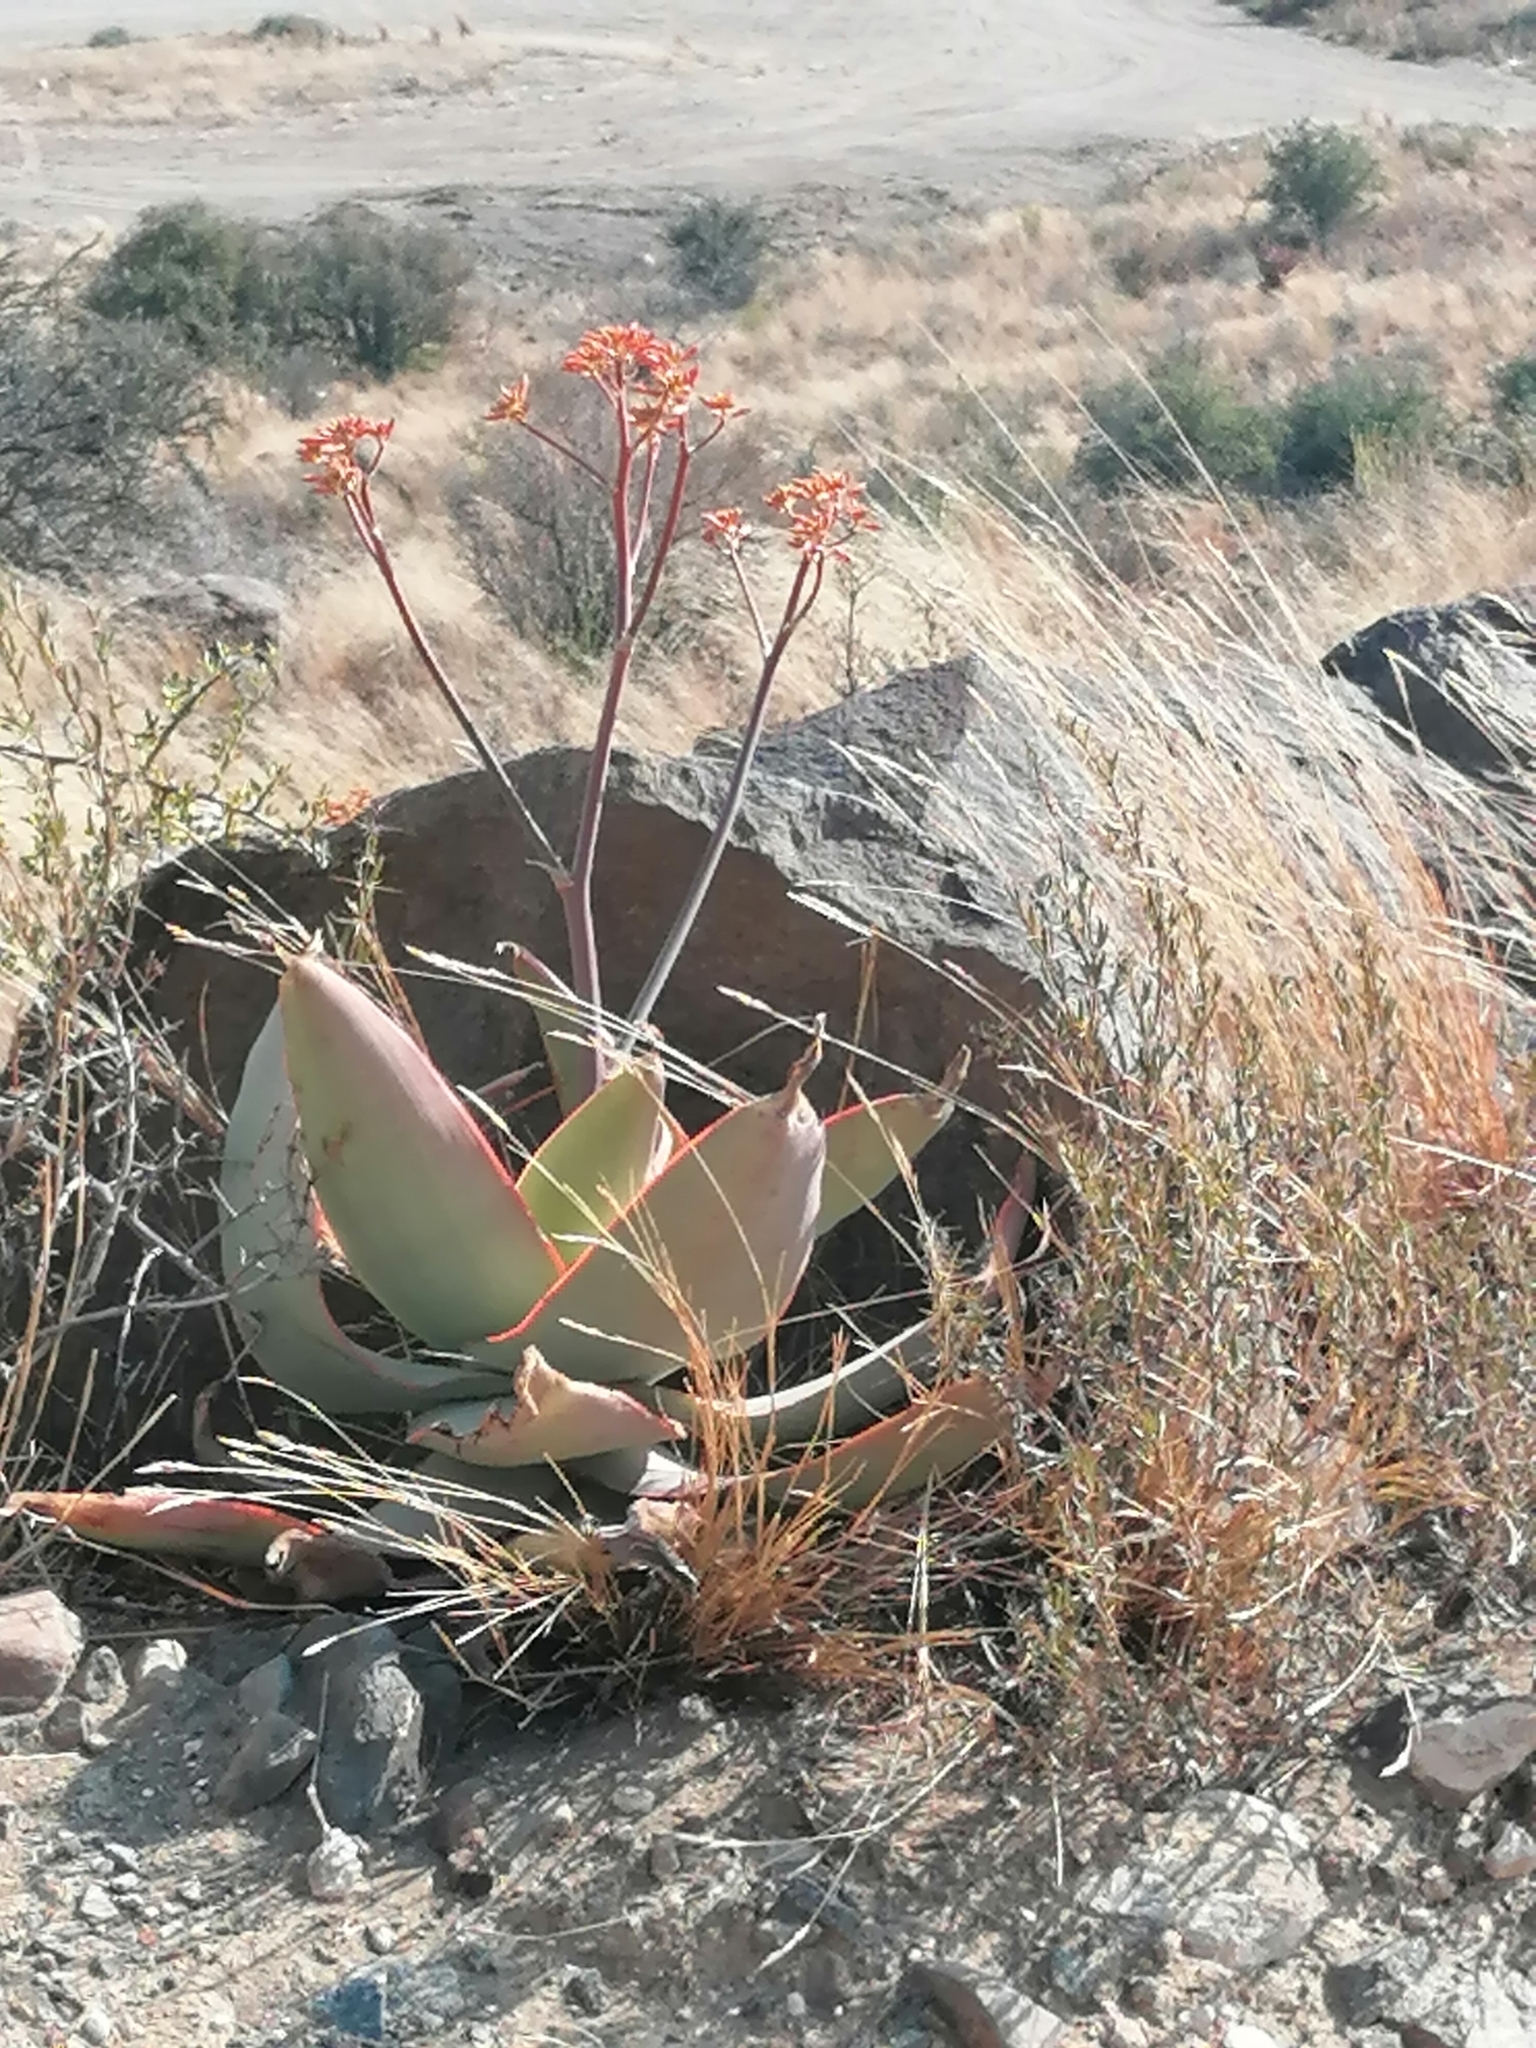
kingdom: Plantae
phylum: Tracheophyta
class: Liliopsida
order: Asparagales
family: Asphodelaceae
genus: Aloe
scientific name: Aloe striata
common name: Coral aloe
